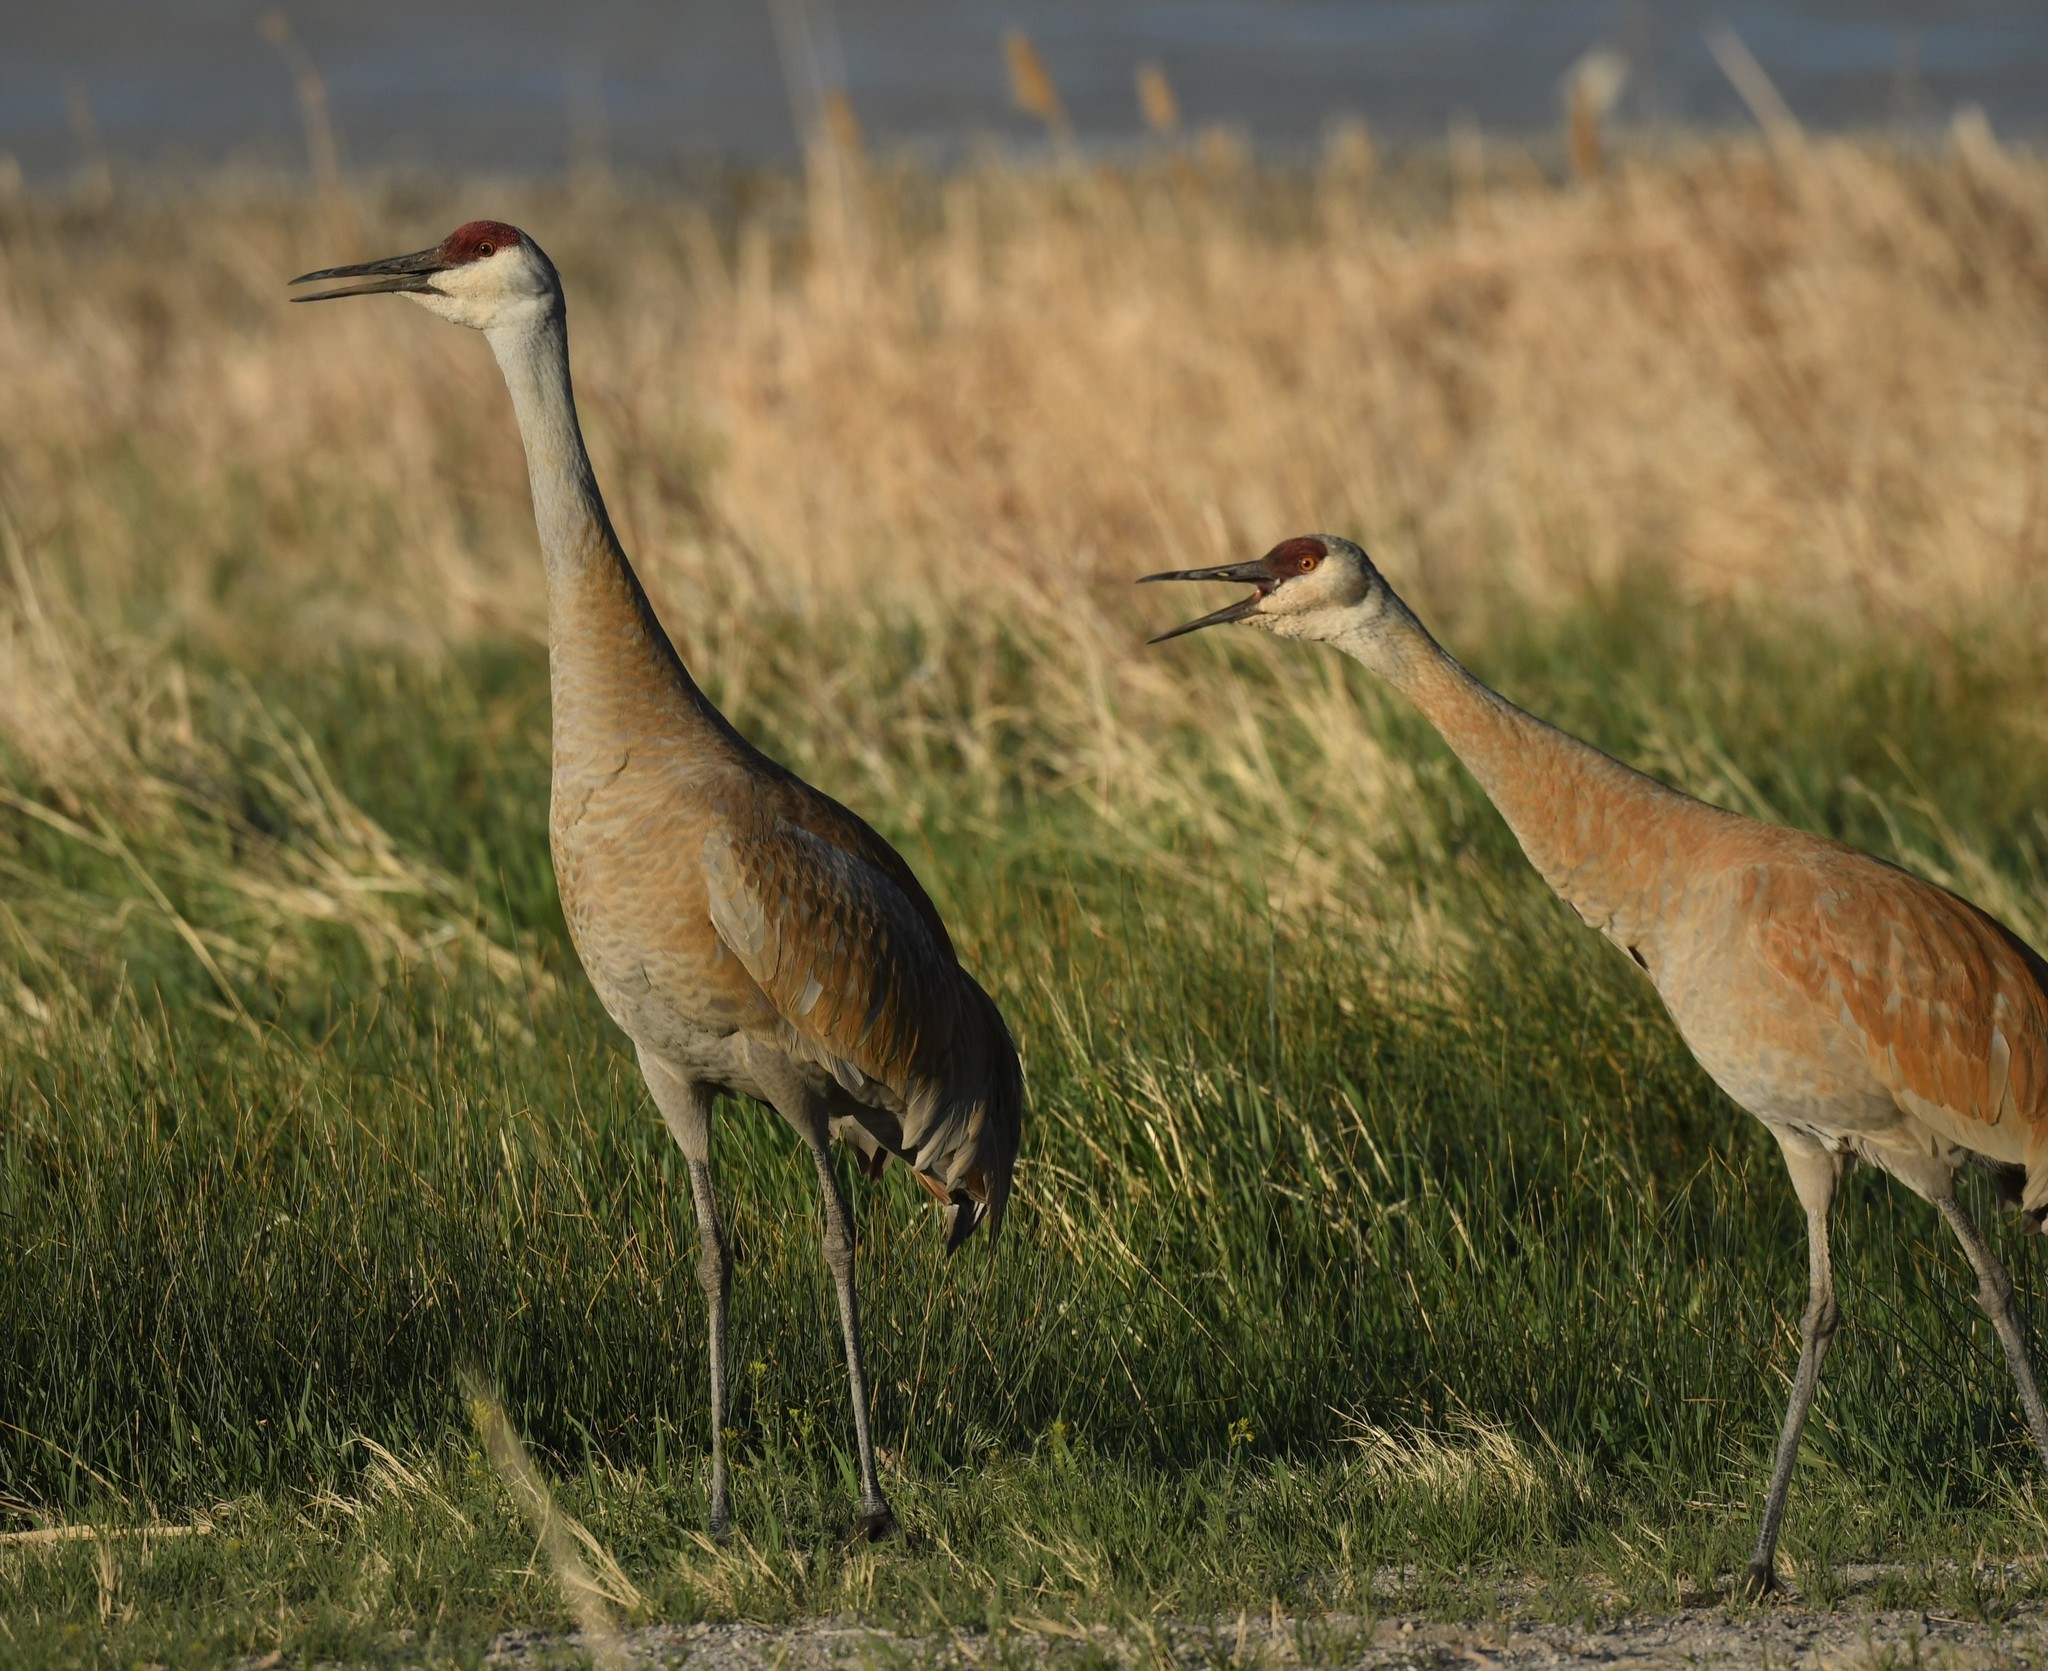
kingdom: Animalia
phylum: Chordata
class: Aves
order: Gruiformes
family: Gruidae
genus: Grus
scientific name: Grus canadensis
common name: Sandhill crane
